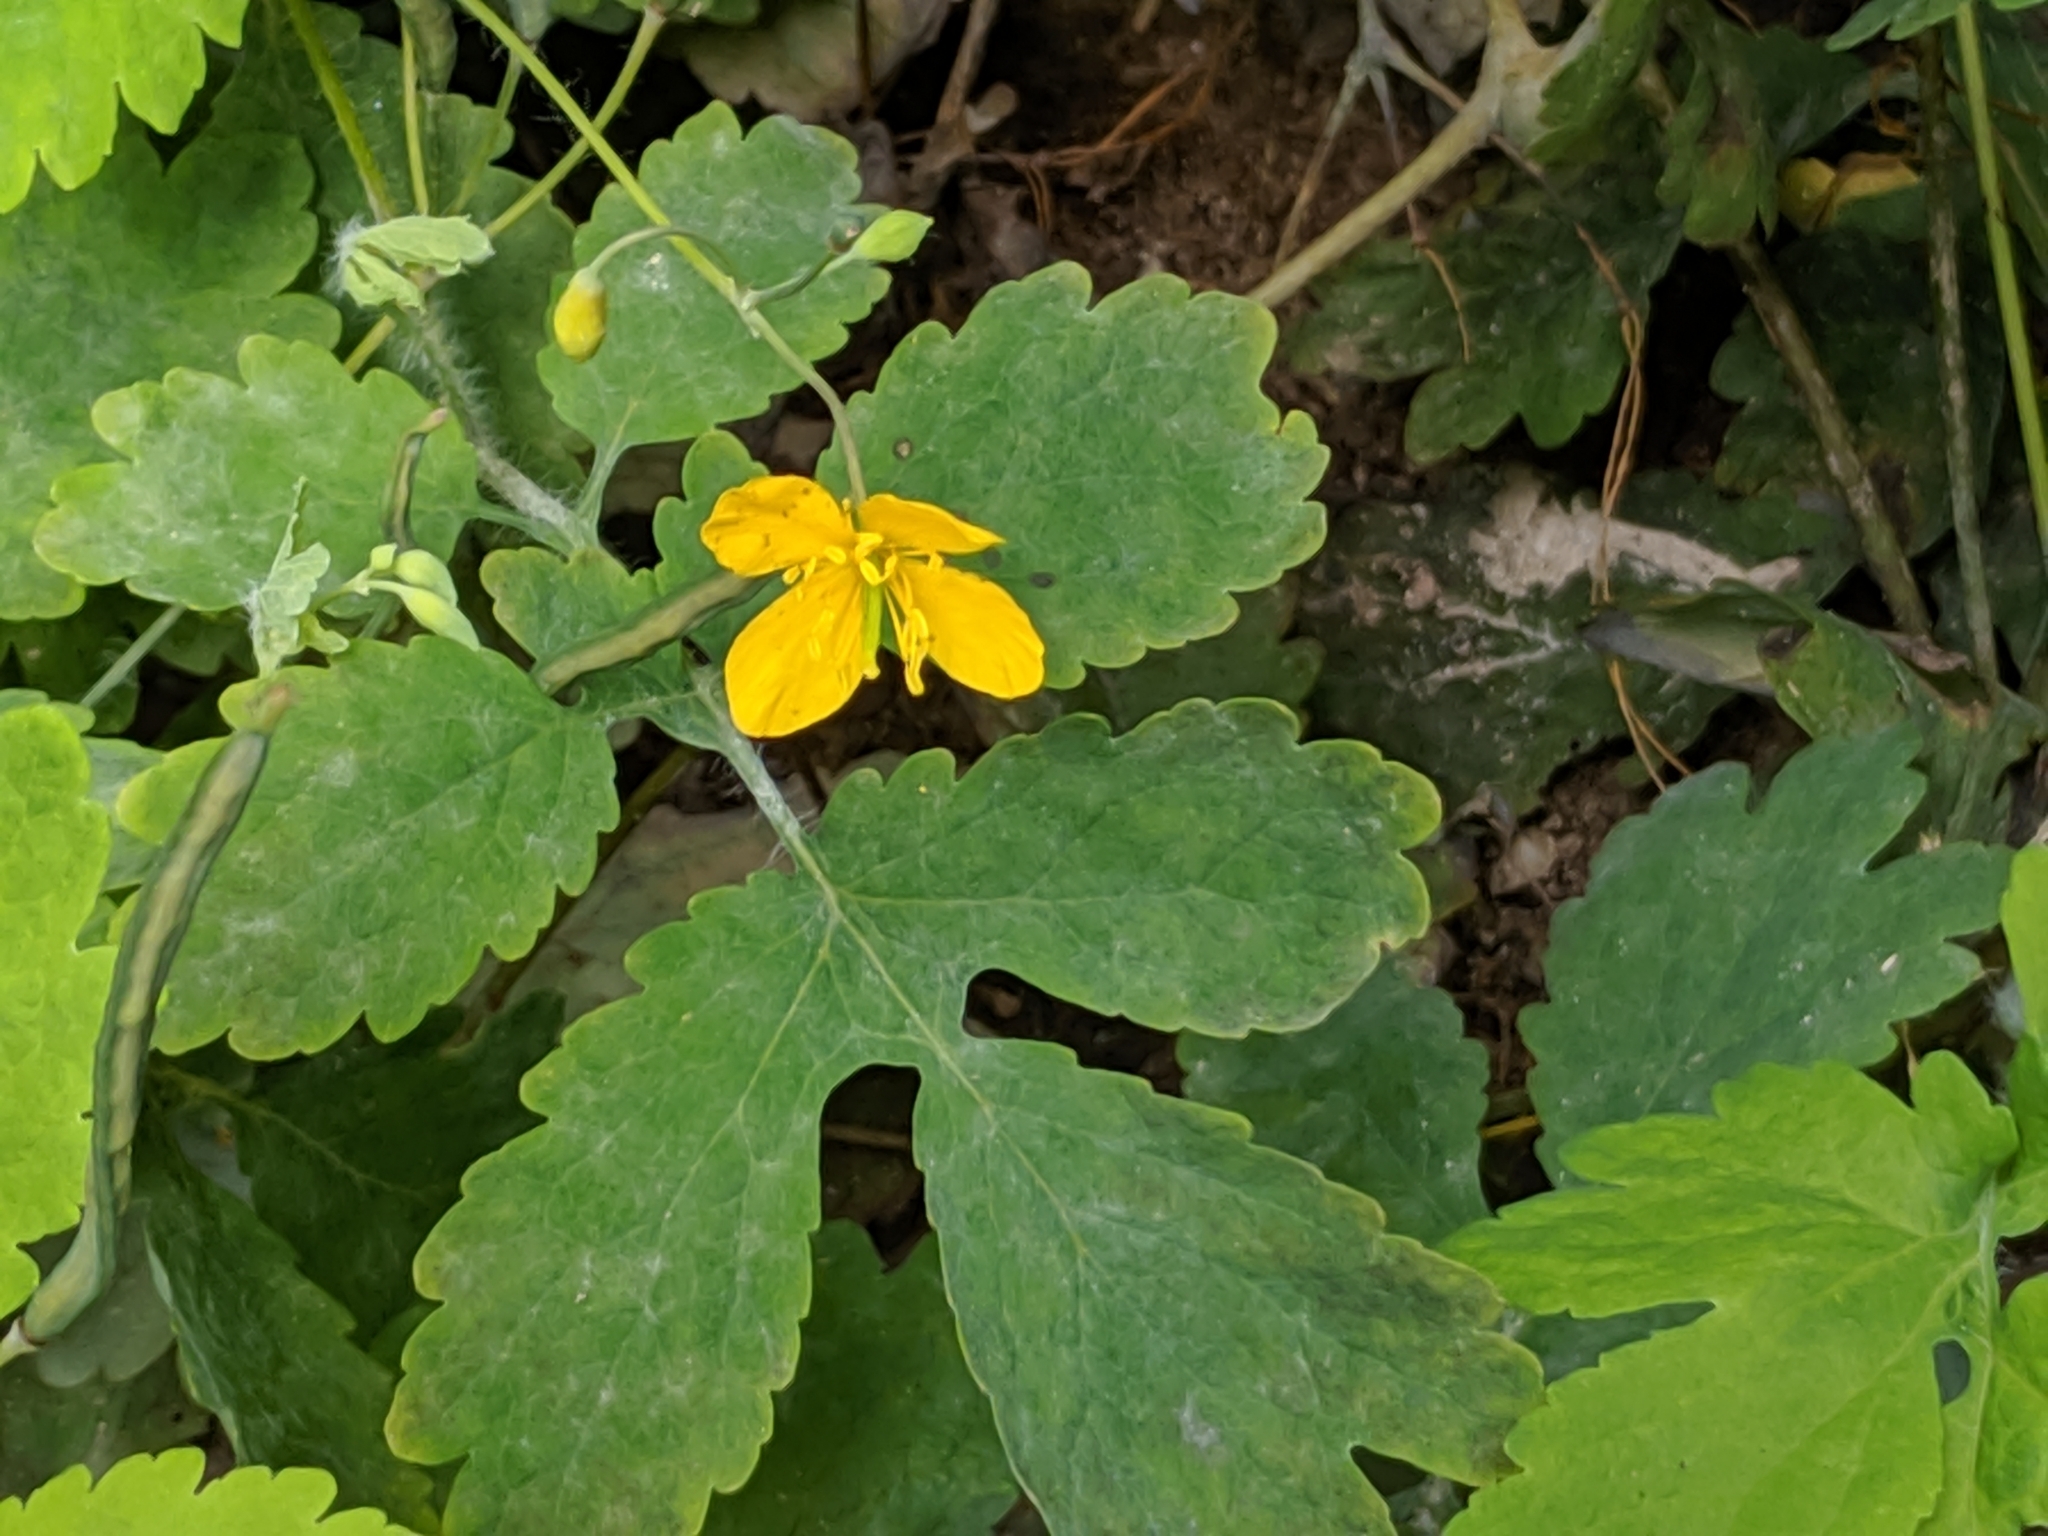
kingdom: Plantae
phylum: Tracheophyta
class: Magnoliopsida
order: Ranunculales
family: Papaveraceae
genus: Chelidonium
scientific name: Chelidonium majus
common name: Greater celandine
